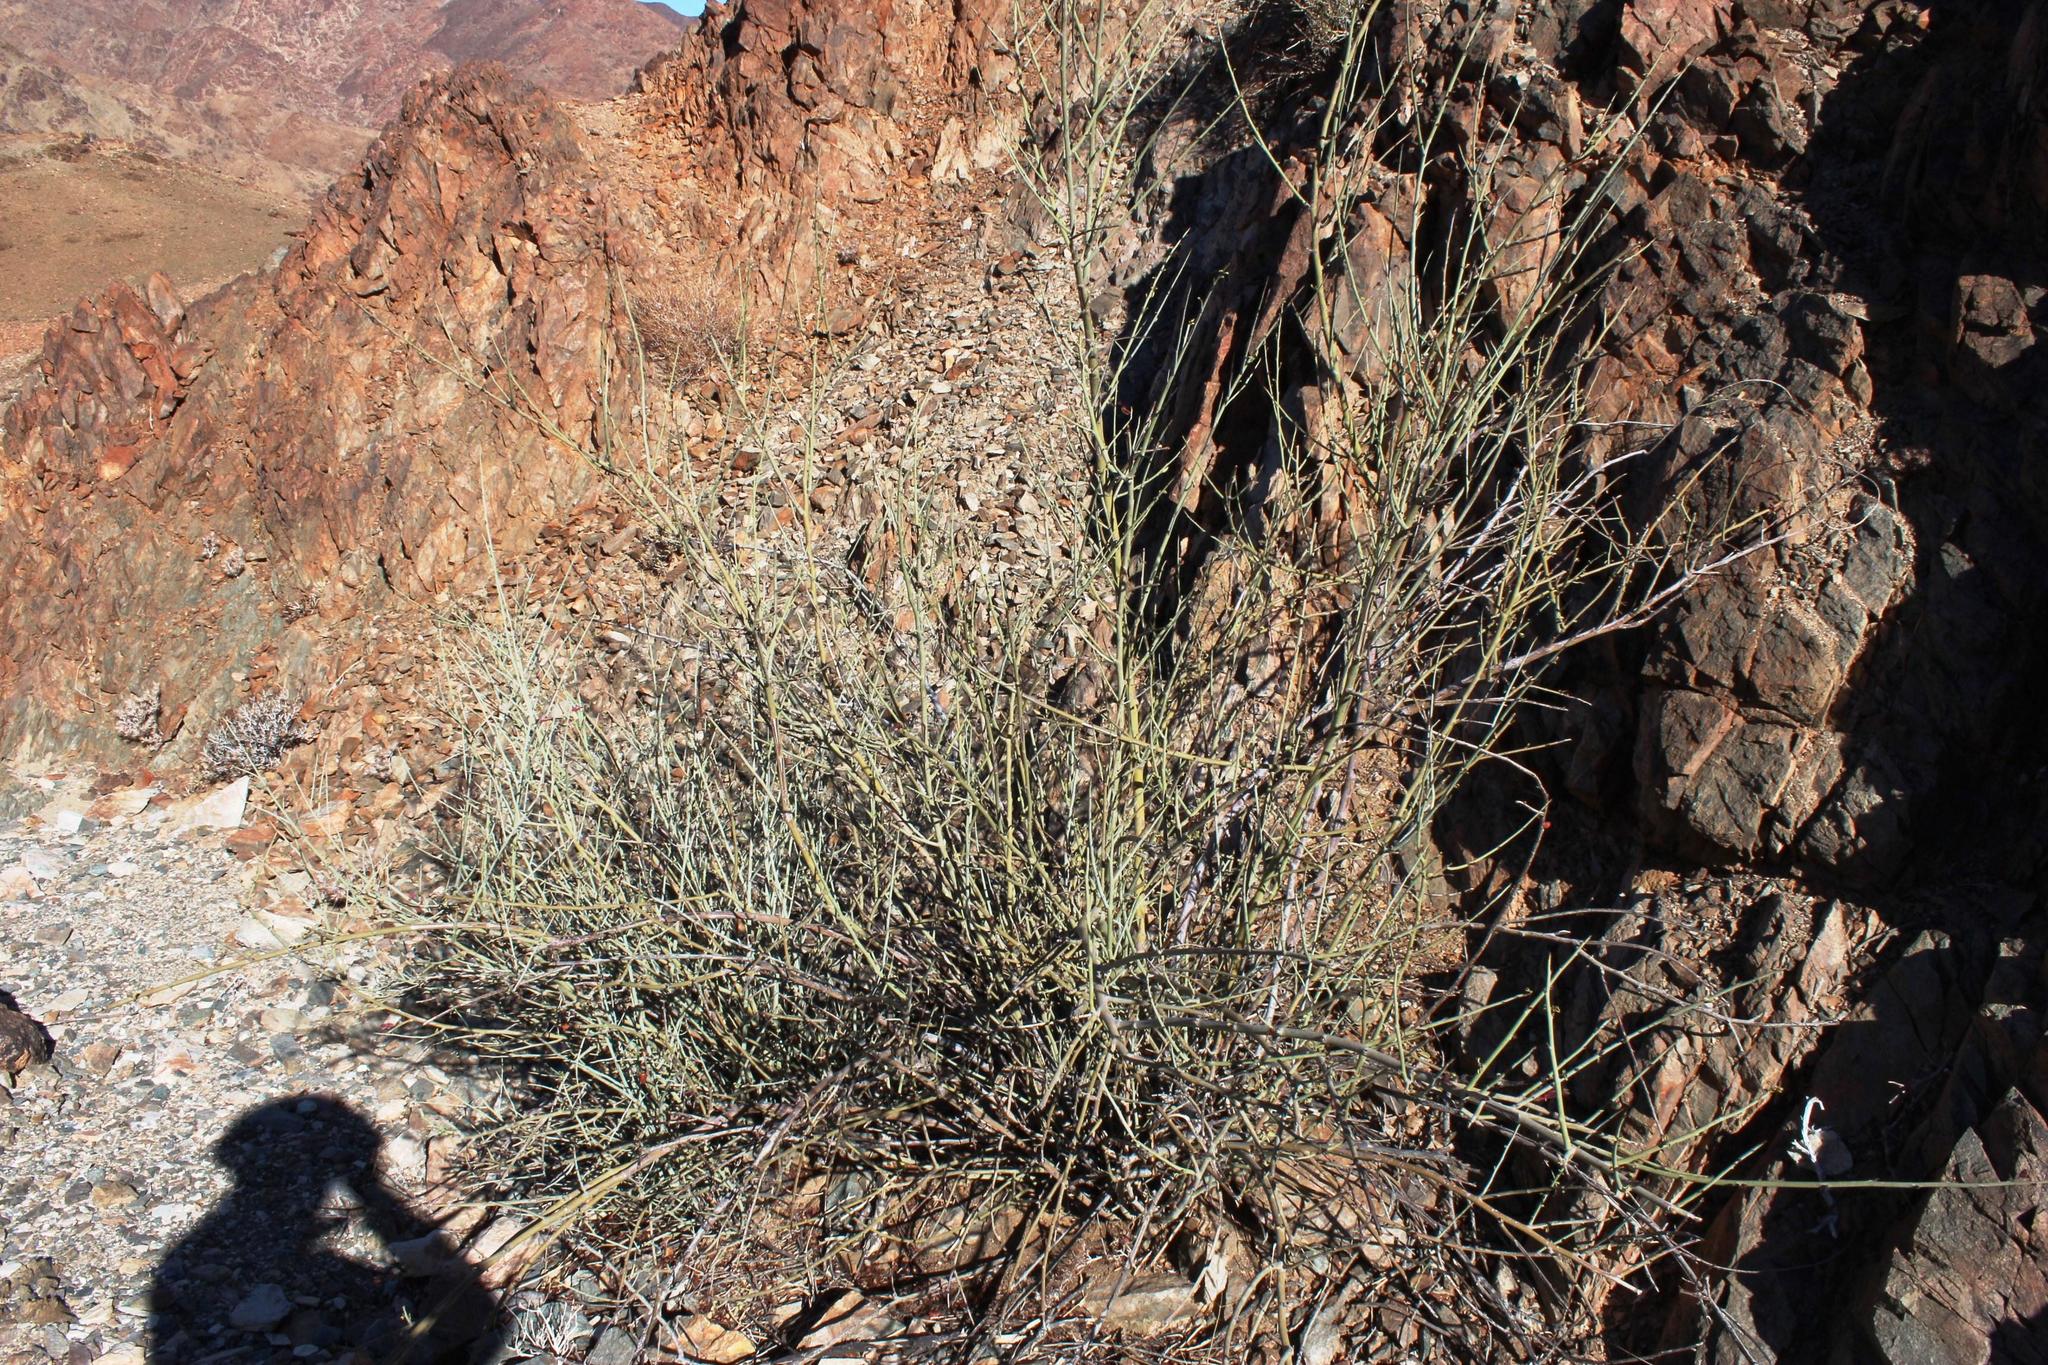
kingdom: Plantae
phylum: Tracheophyta
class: Magnoliopsida
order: Fabales
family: Fabaceae
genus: Adenolobus
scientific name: Adenolobus garipensis
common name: Butterfly-leaf
